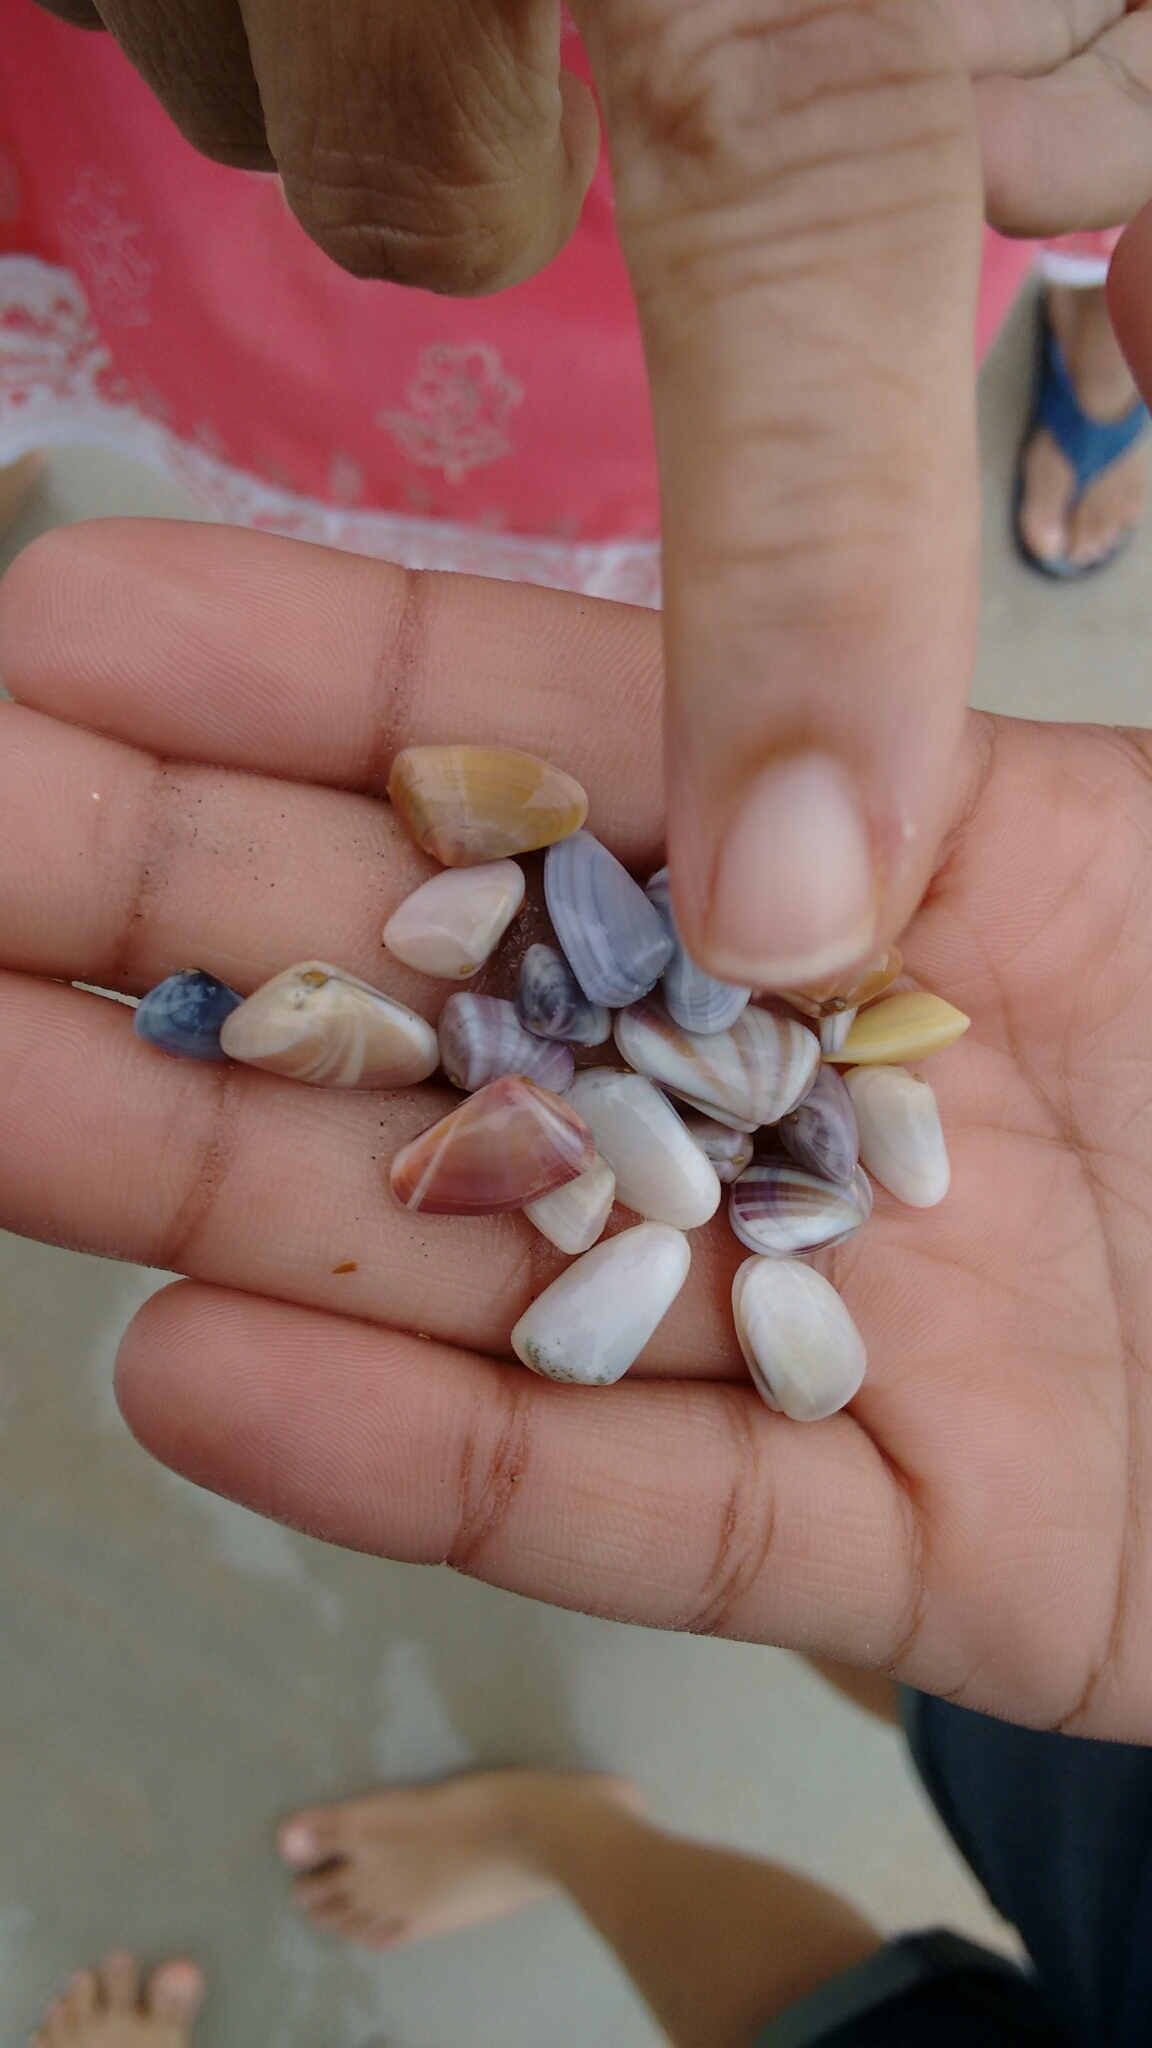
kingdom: Animalia
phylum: Mollusca
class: Bivalvia
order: Cardiida
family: Donacidae
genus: Donax
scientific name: Donax variabilis
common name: Butterfly shell
